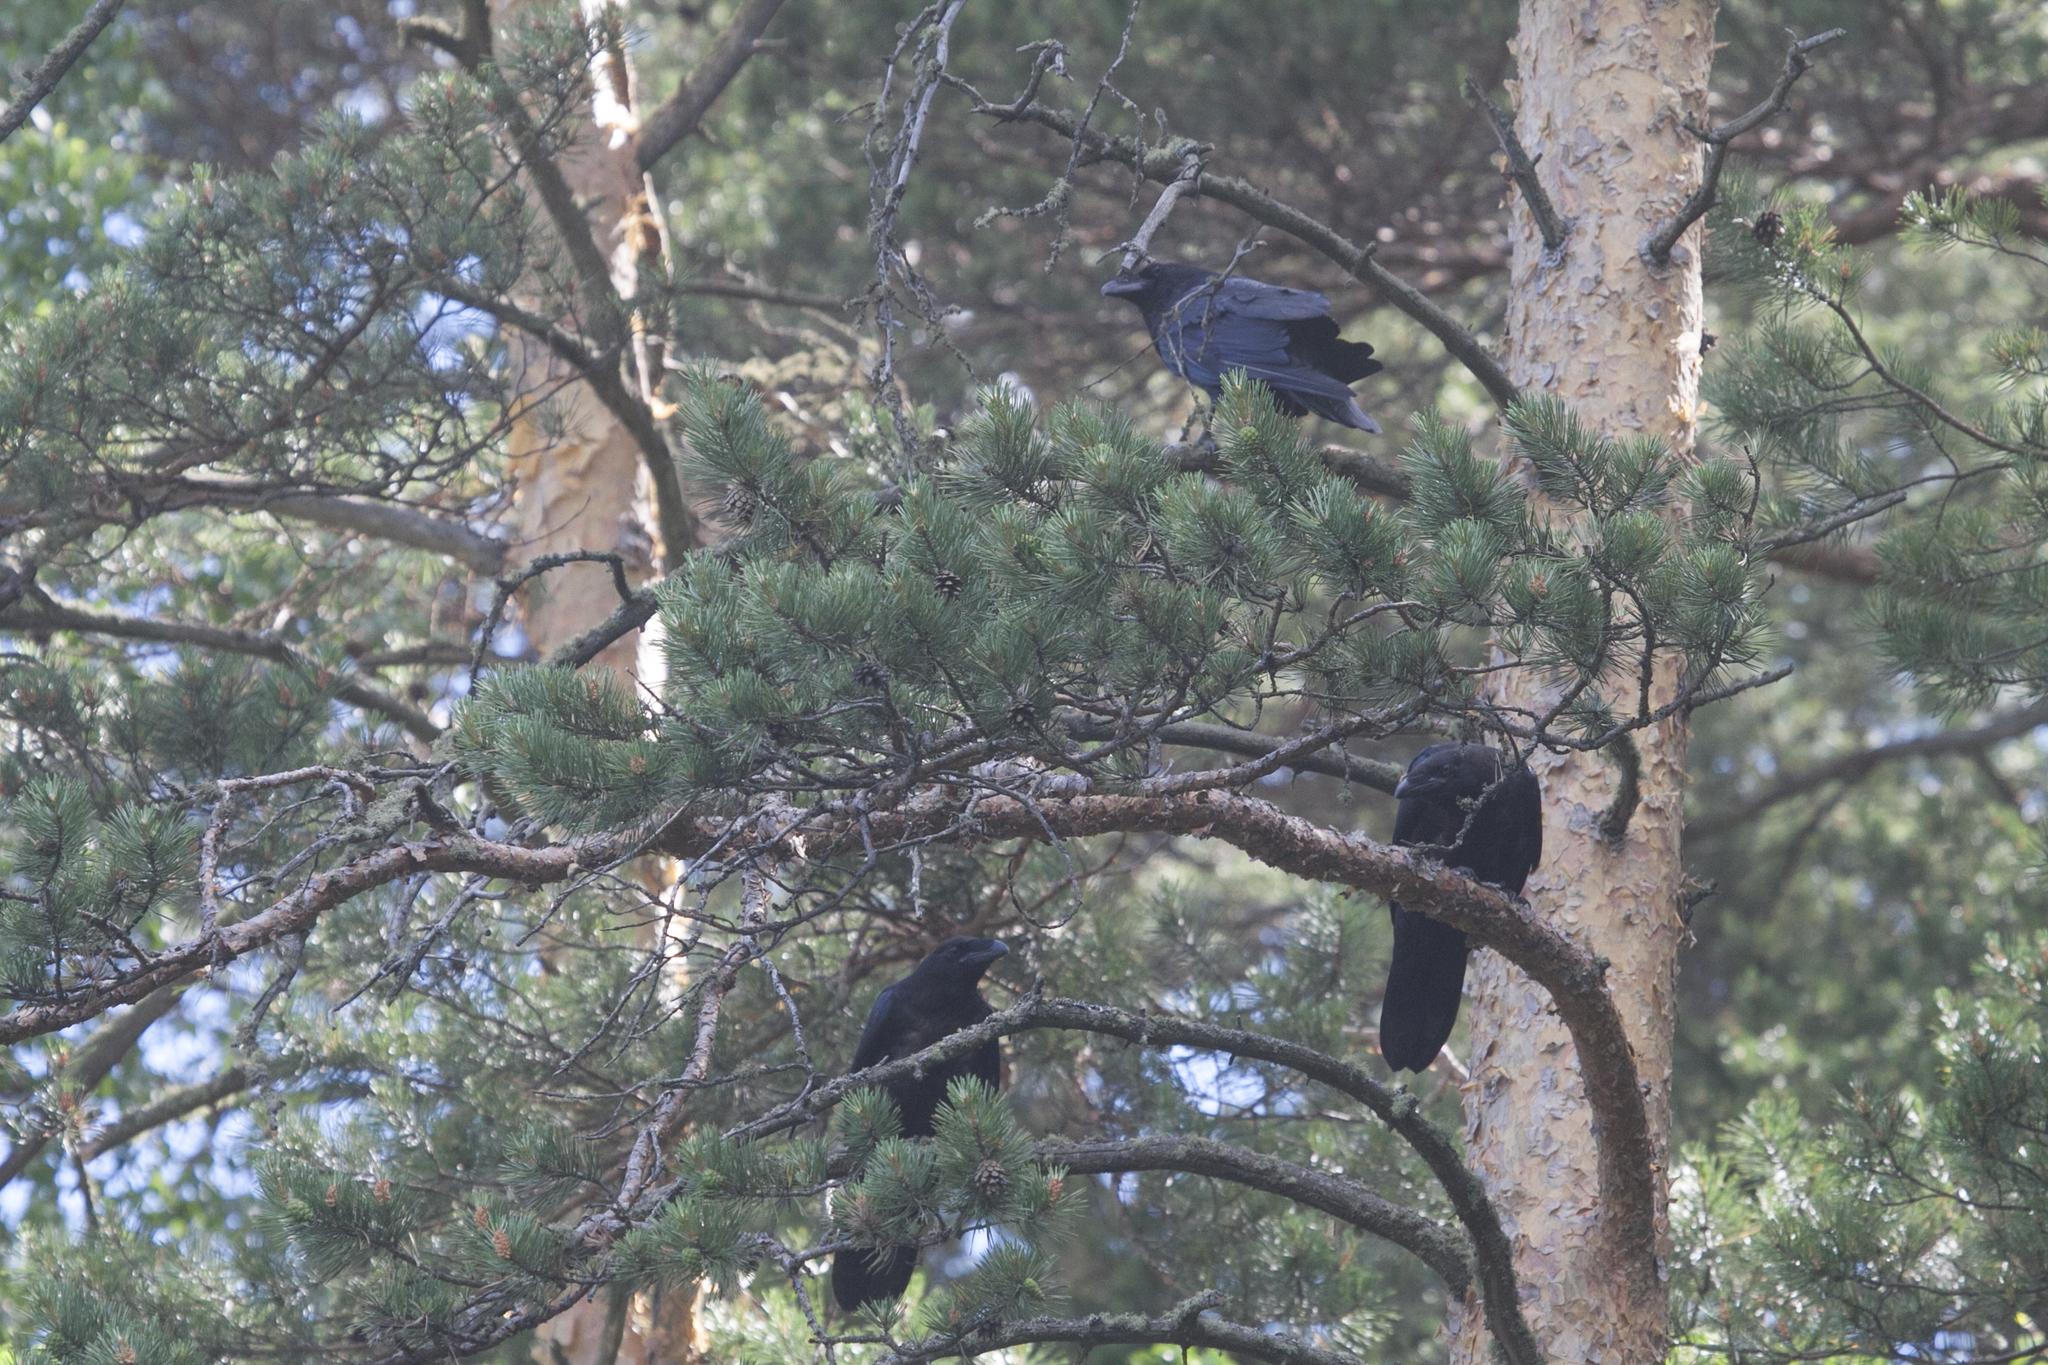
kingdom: Animalia
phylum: Chordata
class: Aves
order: Passeriformes
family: Corvidae
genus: Corvus
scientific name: Corvus corax
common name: Common raven
